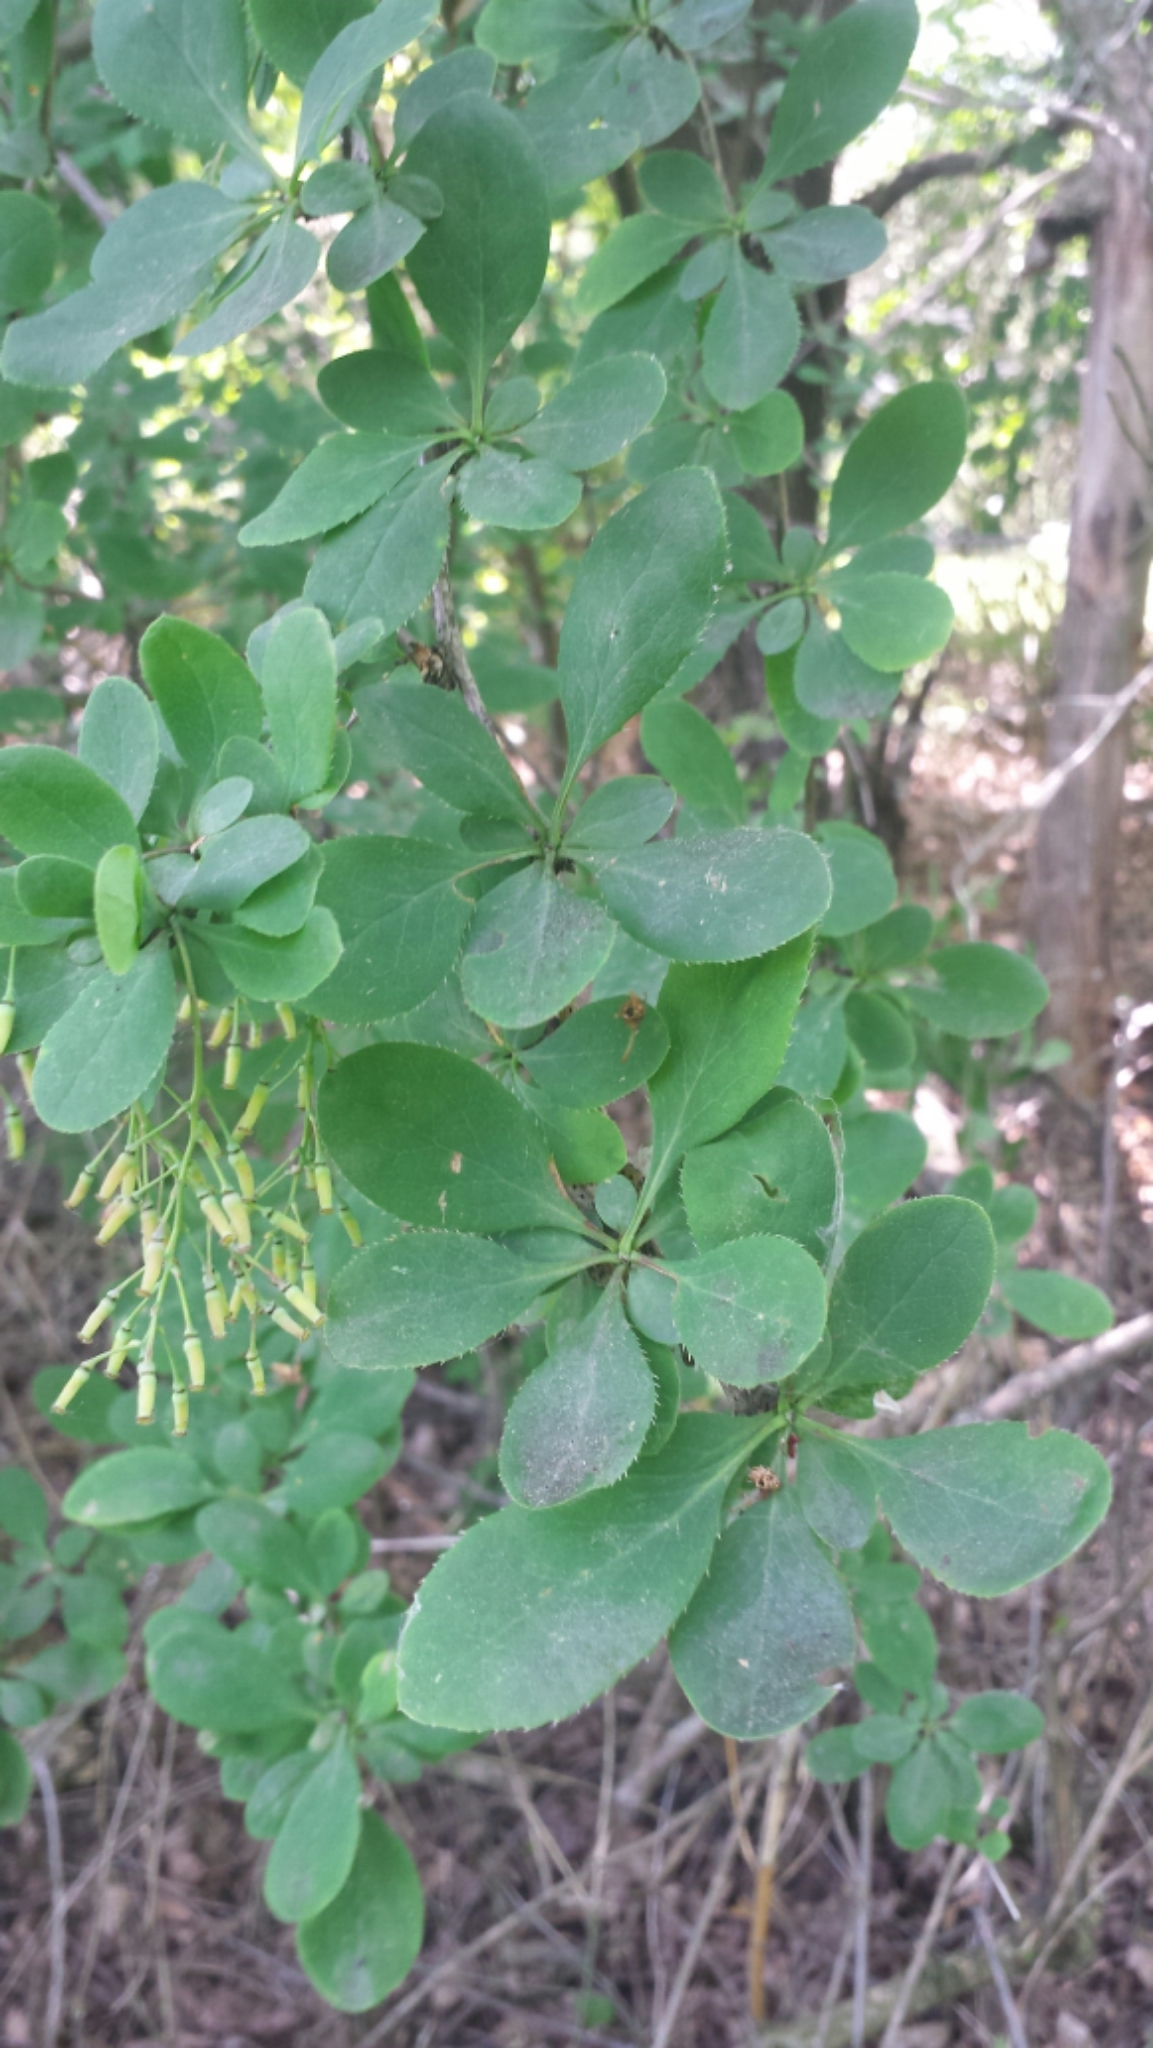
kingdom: Plantae
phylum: Tracheophyta
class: Magnoliopsida
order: Ranunculales
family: Berberidaceae
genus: Berberis
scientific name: Berberis vulgaris
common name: Barberry
